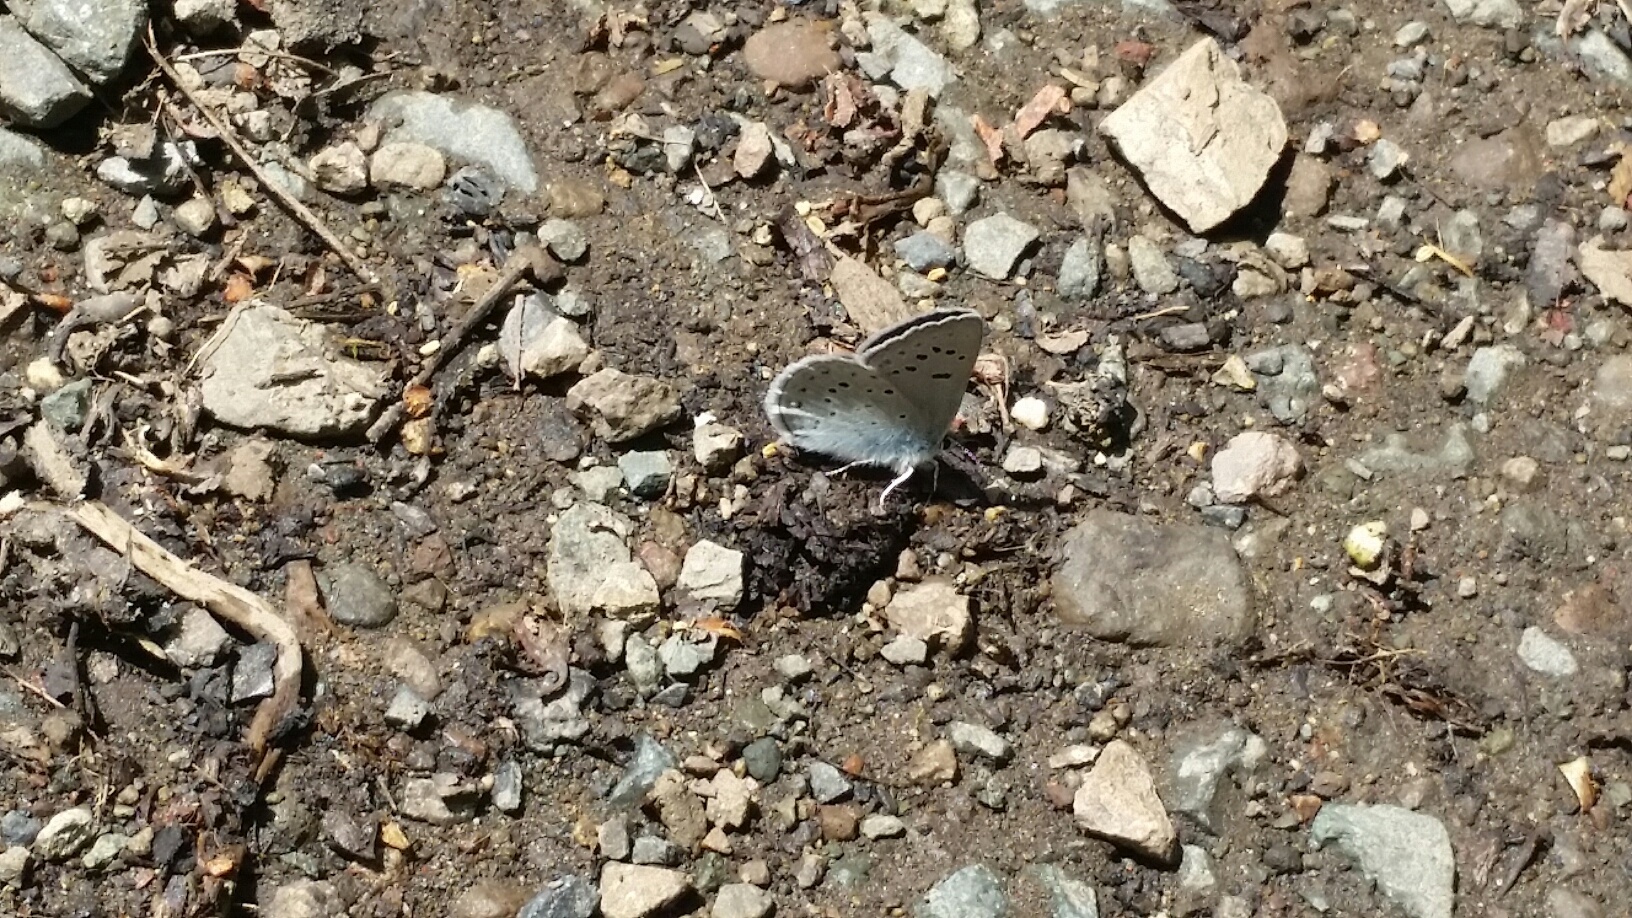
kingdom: Animalia
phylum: Arthropoda
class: Insecta
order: Lepidoptera
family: Lycaenidae
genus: Icaricia
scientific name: Icaricia icarioides
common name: Boisduval's blue
